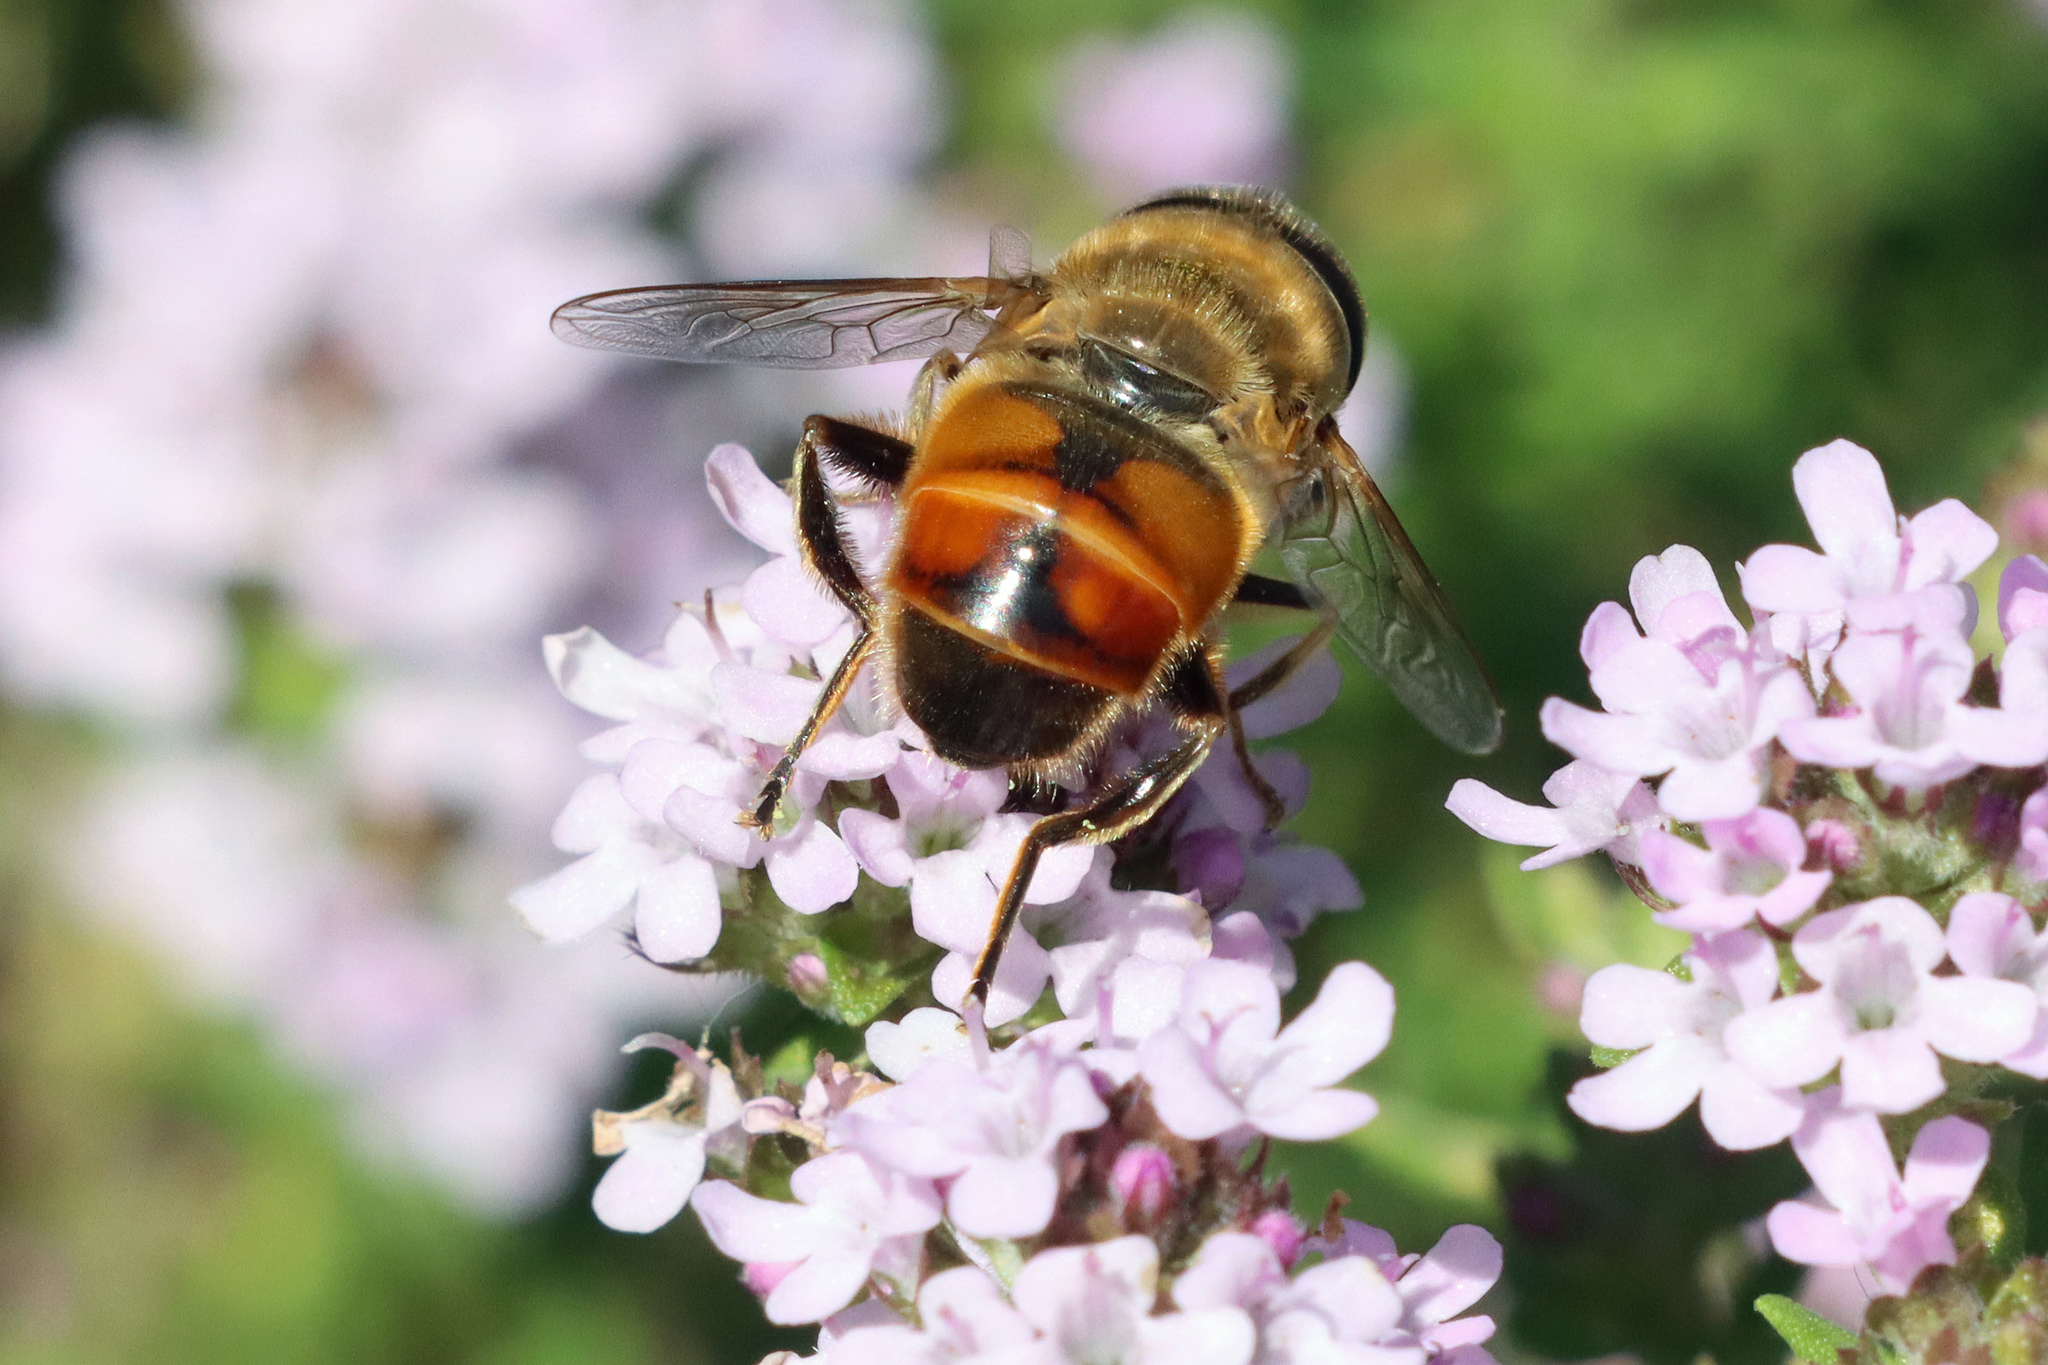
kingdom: Animalia
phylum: Arthropoda
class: Insecta
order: Diptera
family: Syrphidae
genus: Eristalis
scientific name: Eristalis tenax
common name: Drone fly
